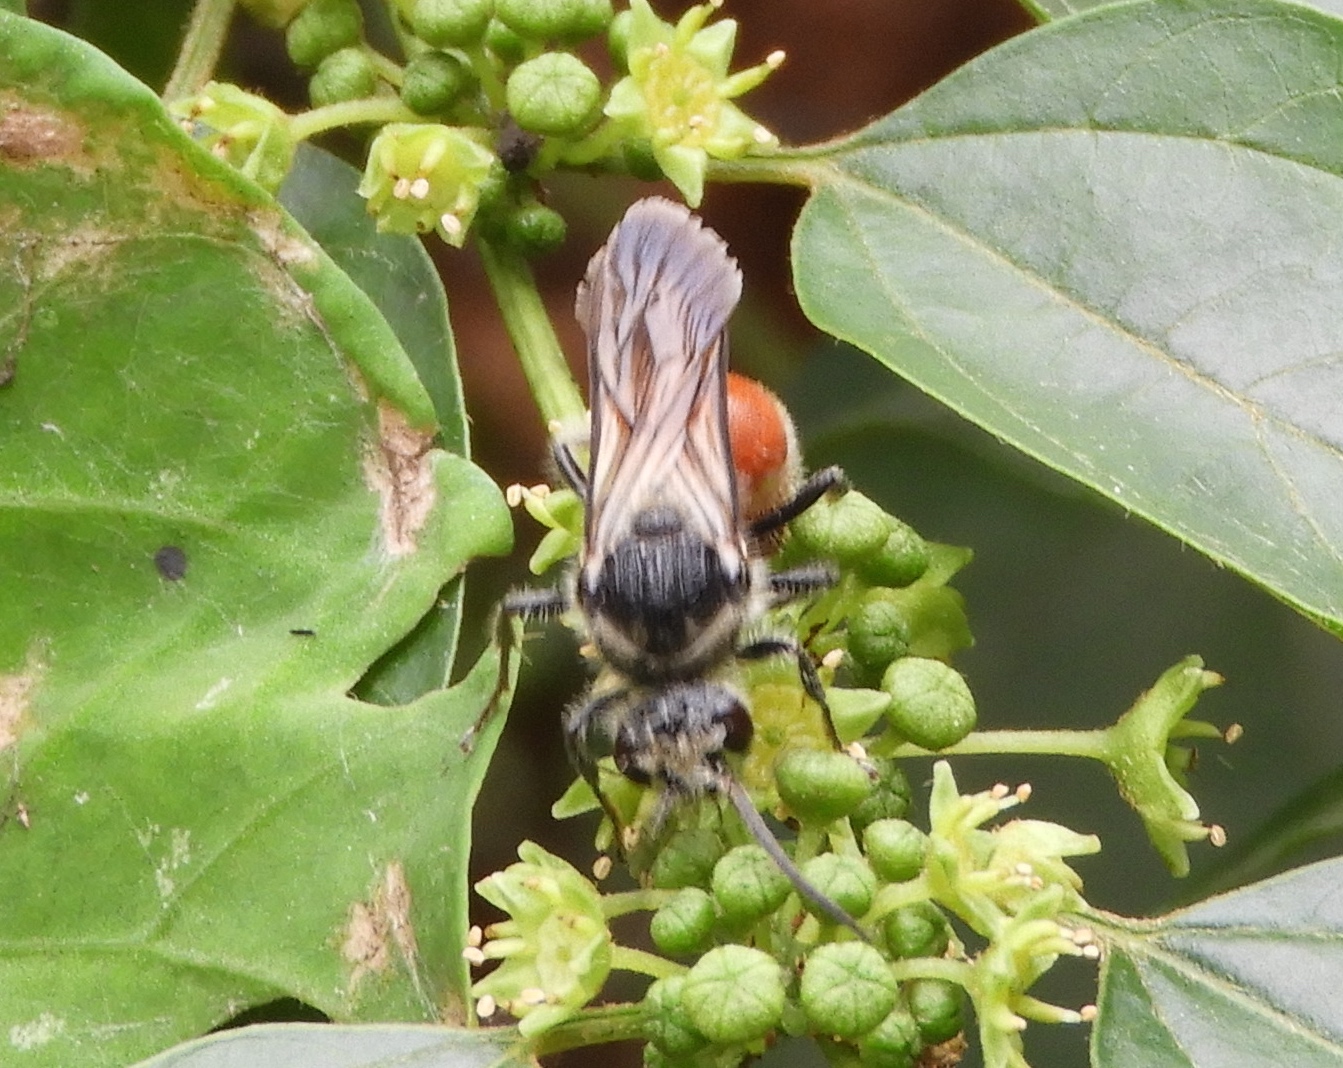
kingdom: Animalia
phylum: Arthropoda
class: Insecta
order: Hymenoptera
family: Mutillidae
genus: Timulla
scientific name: Timulla
